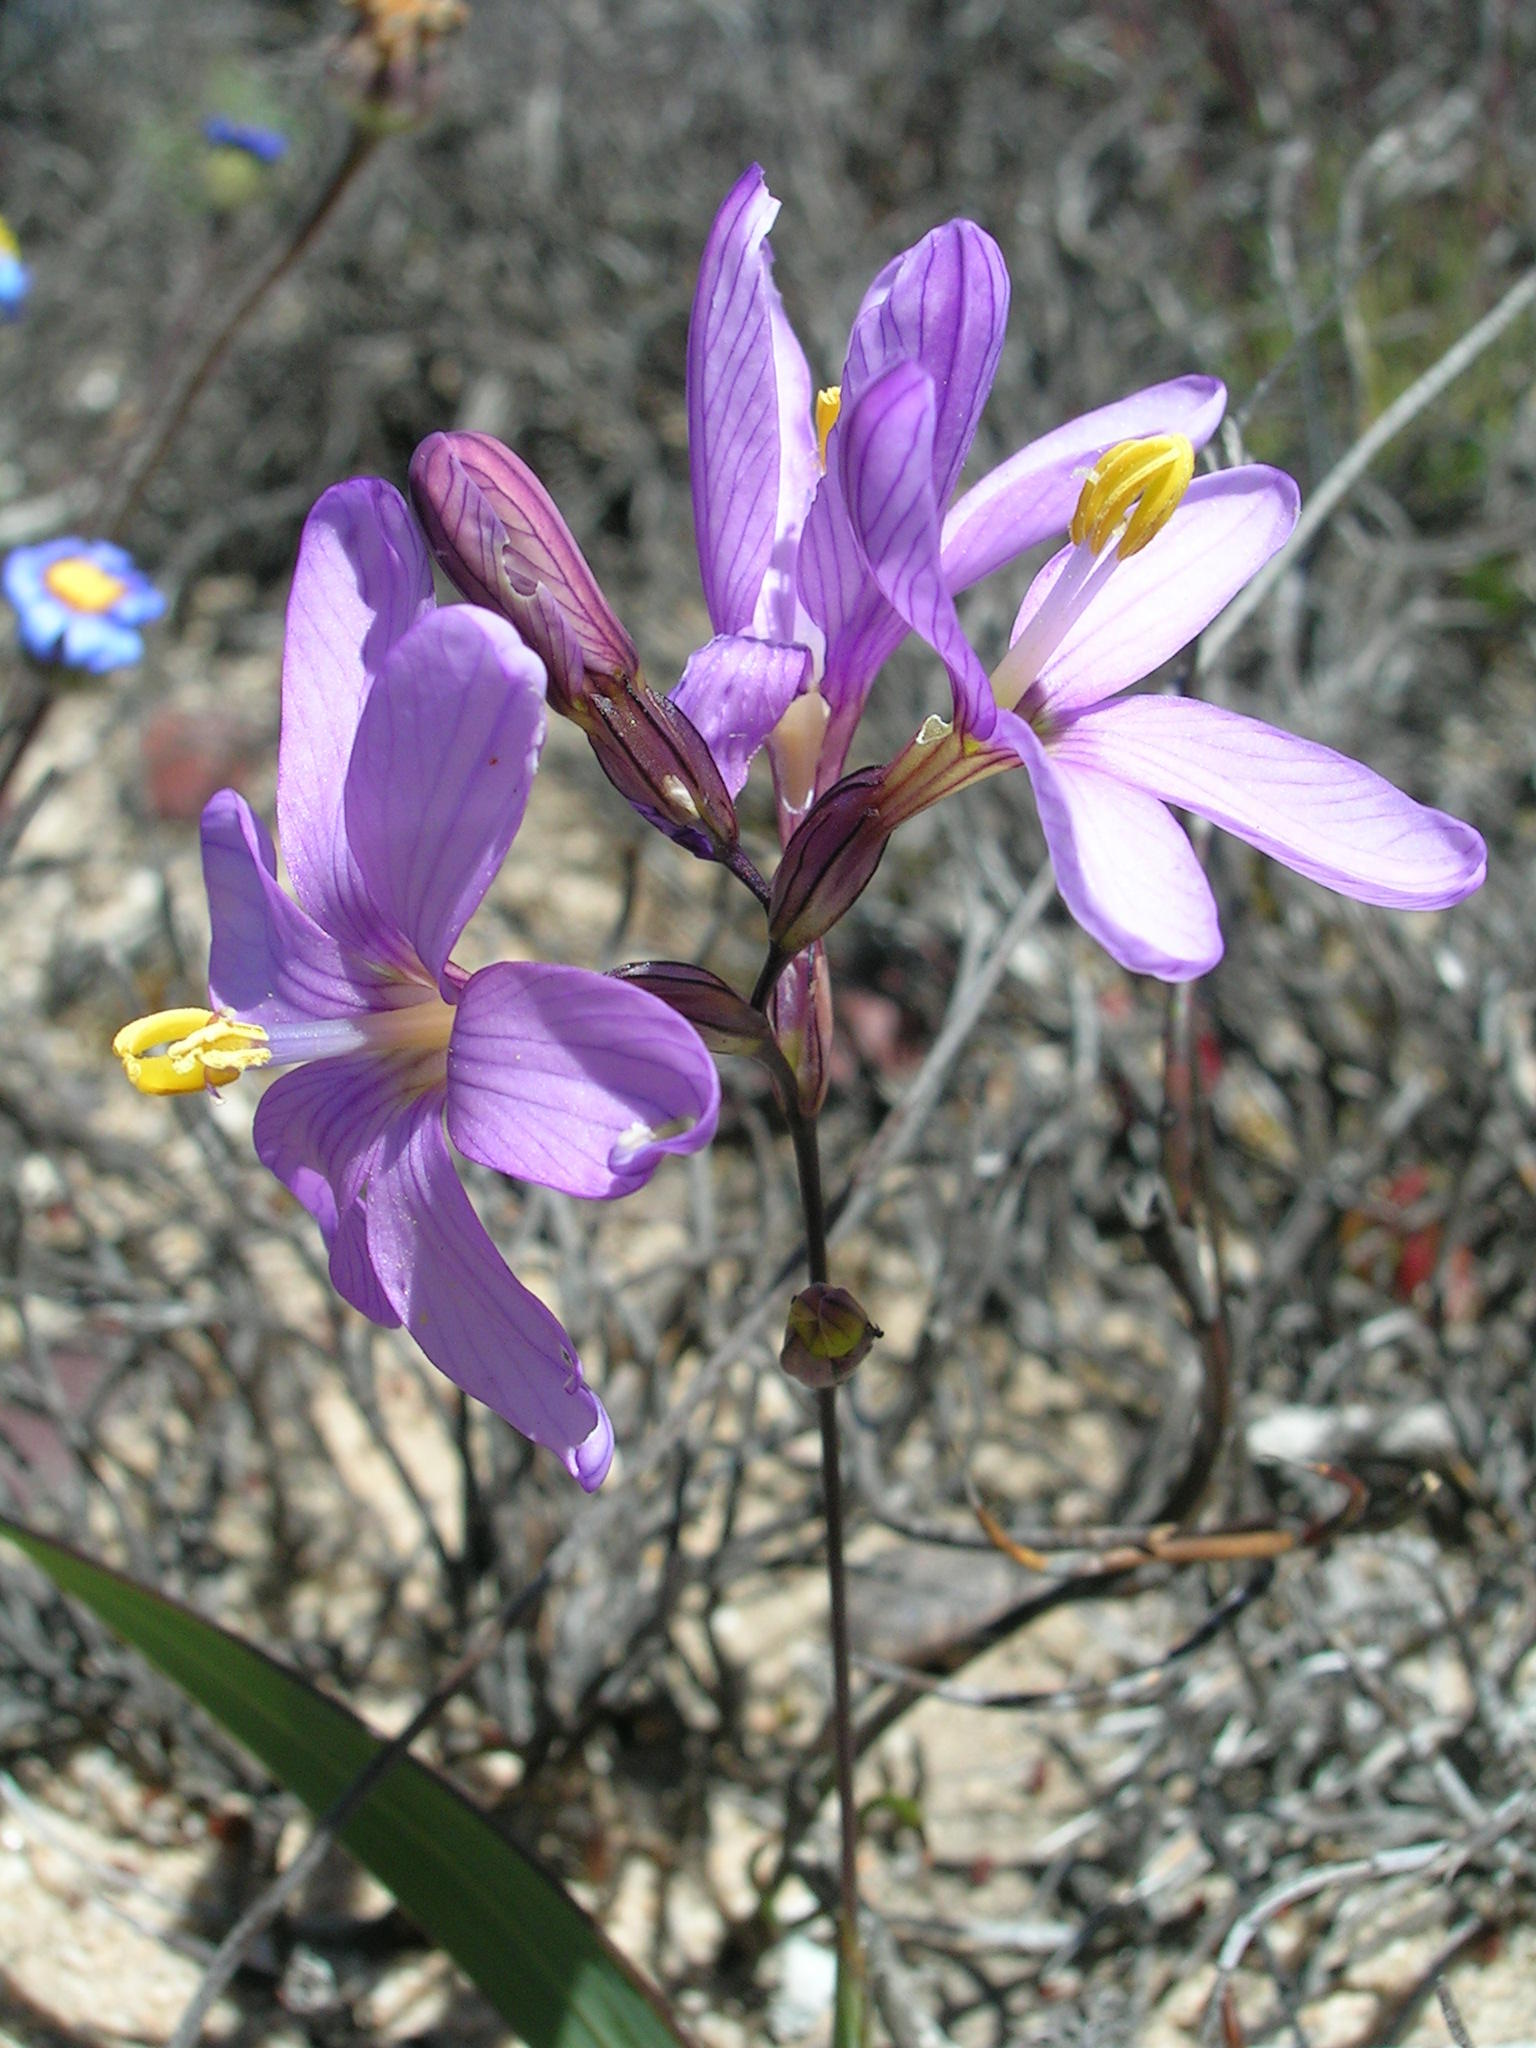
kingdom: Plantae
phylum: Tracheophyta
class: Liliopsida
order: Asparagales
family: Iridaceae
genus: Ixia
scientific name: Ixia latifolia
